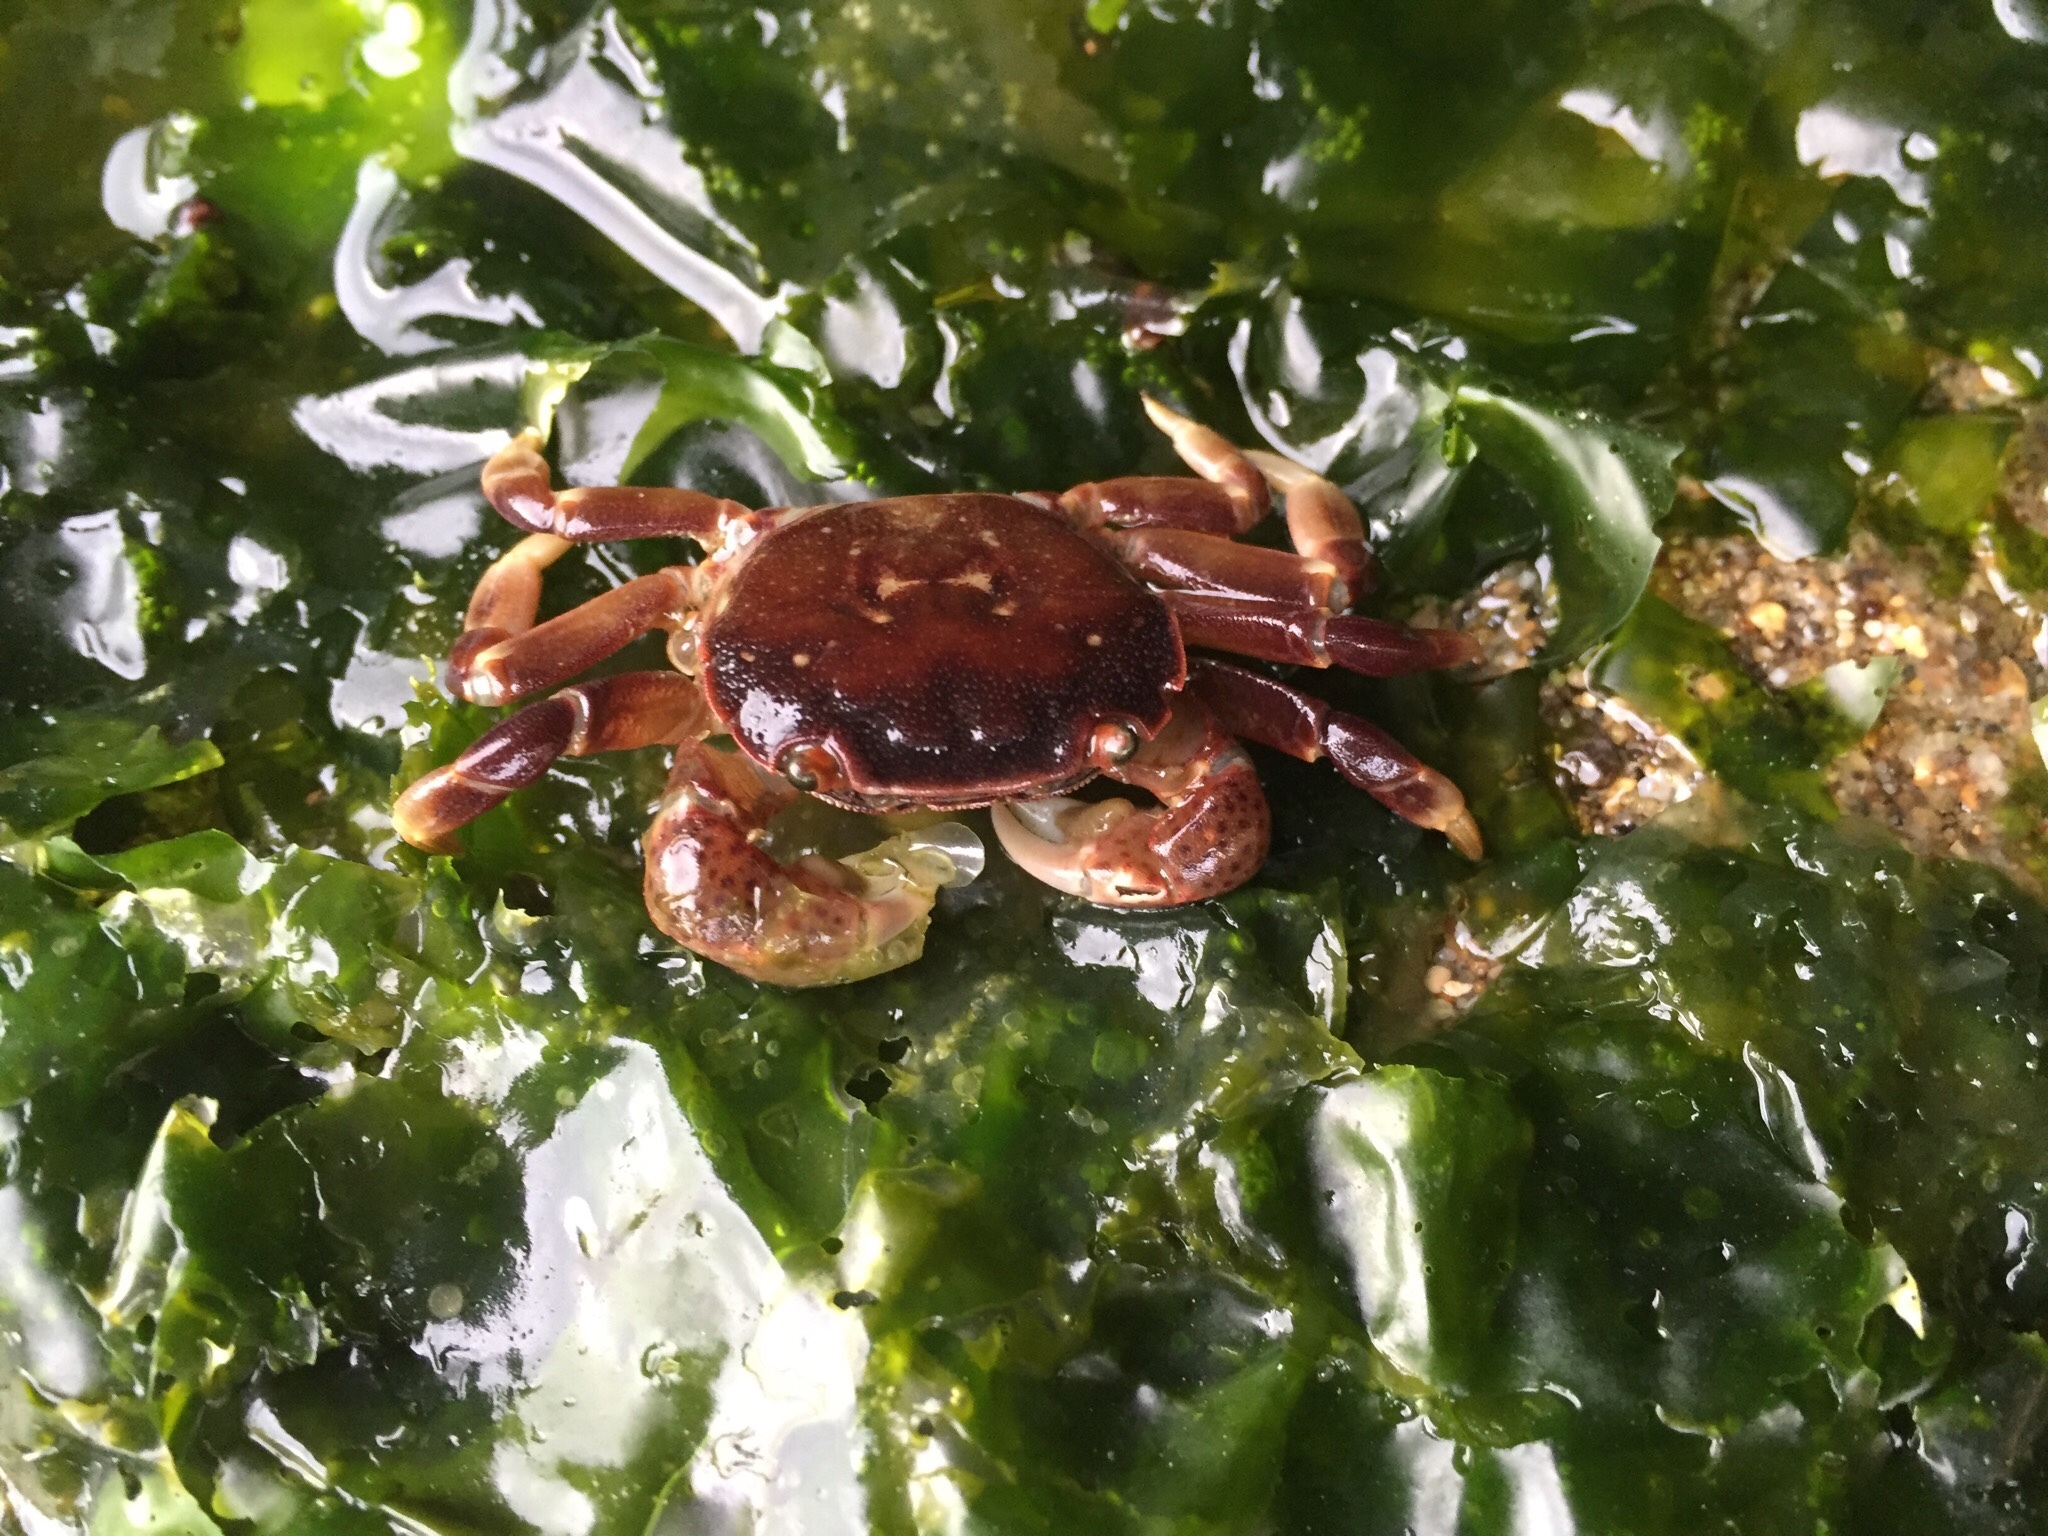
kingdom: Animalia
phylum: Arthropoda
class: Malacostraca
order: Decapoda
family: Varunidae
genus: Hemigrapsus
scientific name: Hemigrapsus nudus
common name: Purple shore crab
